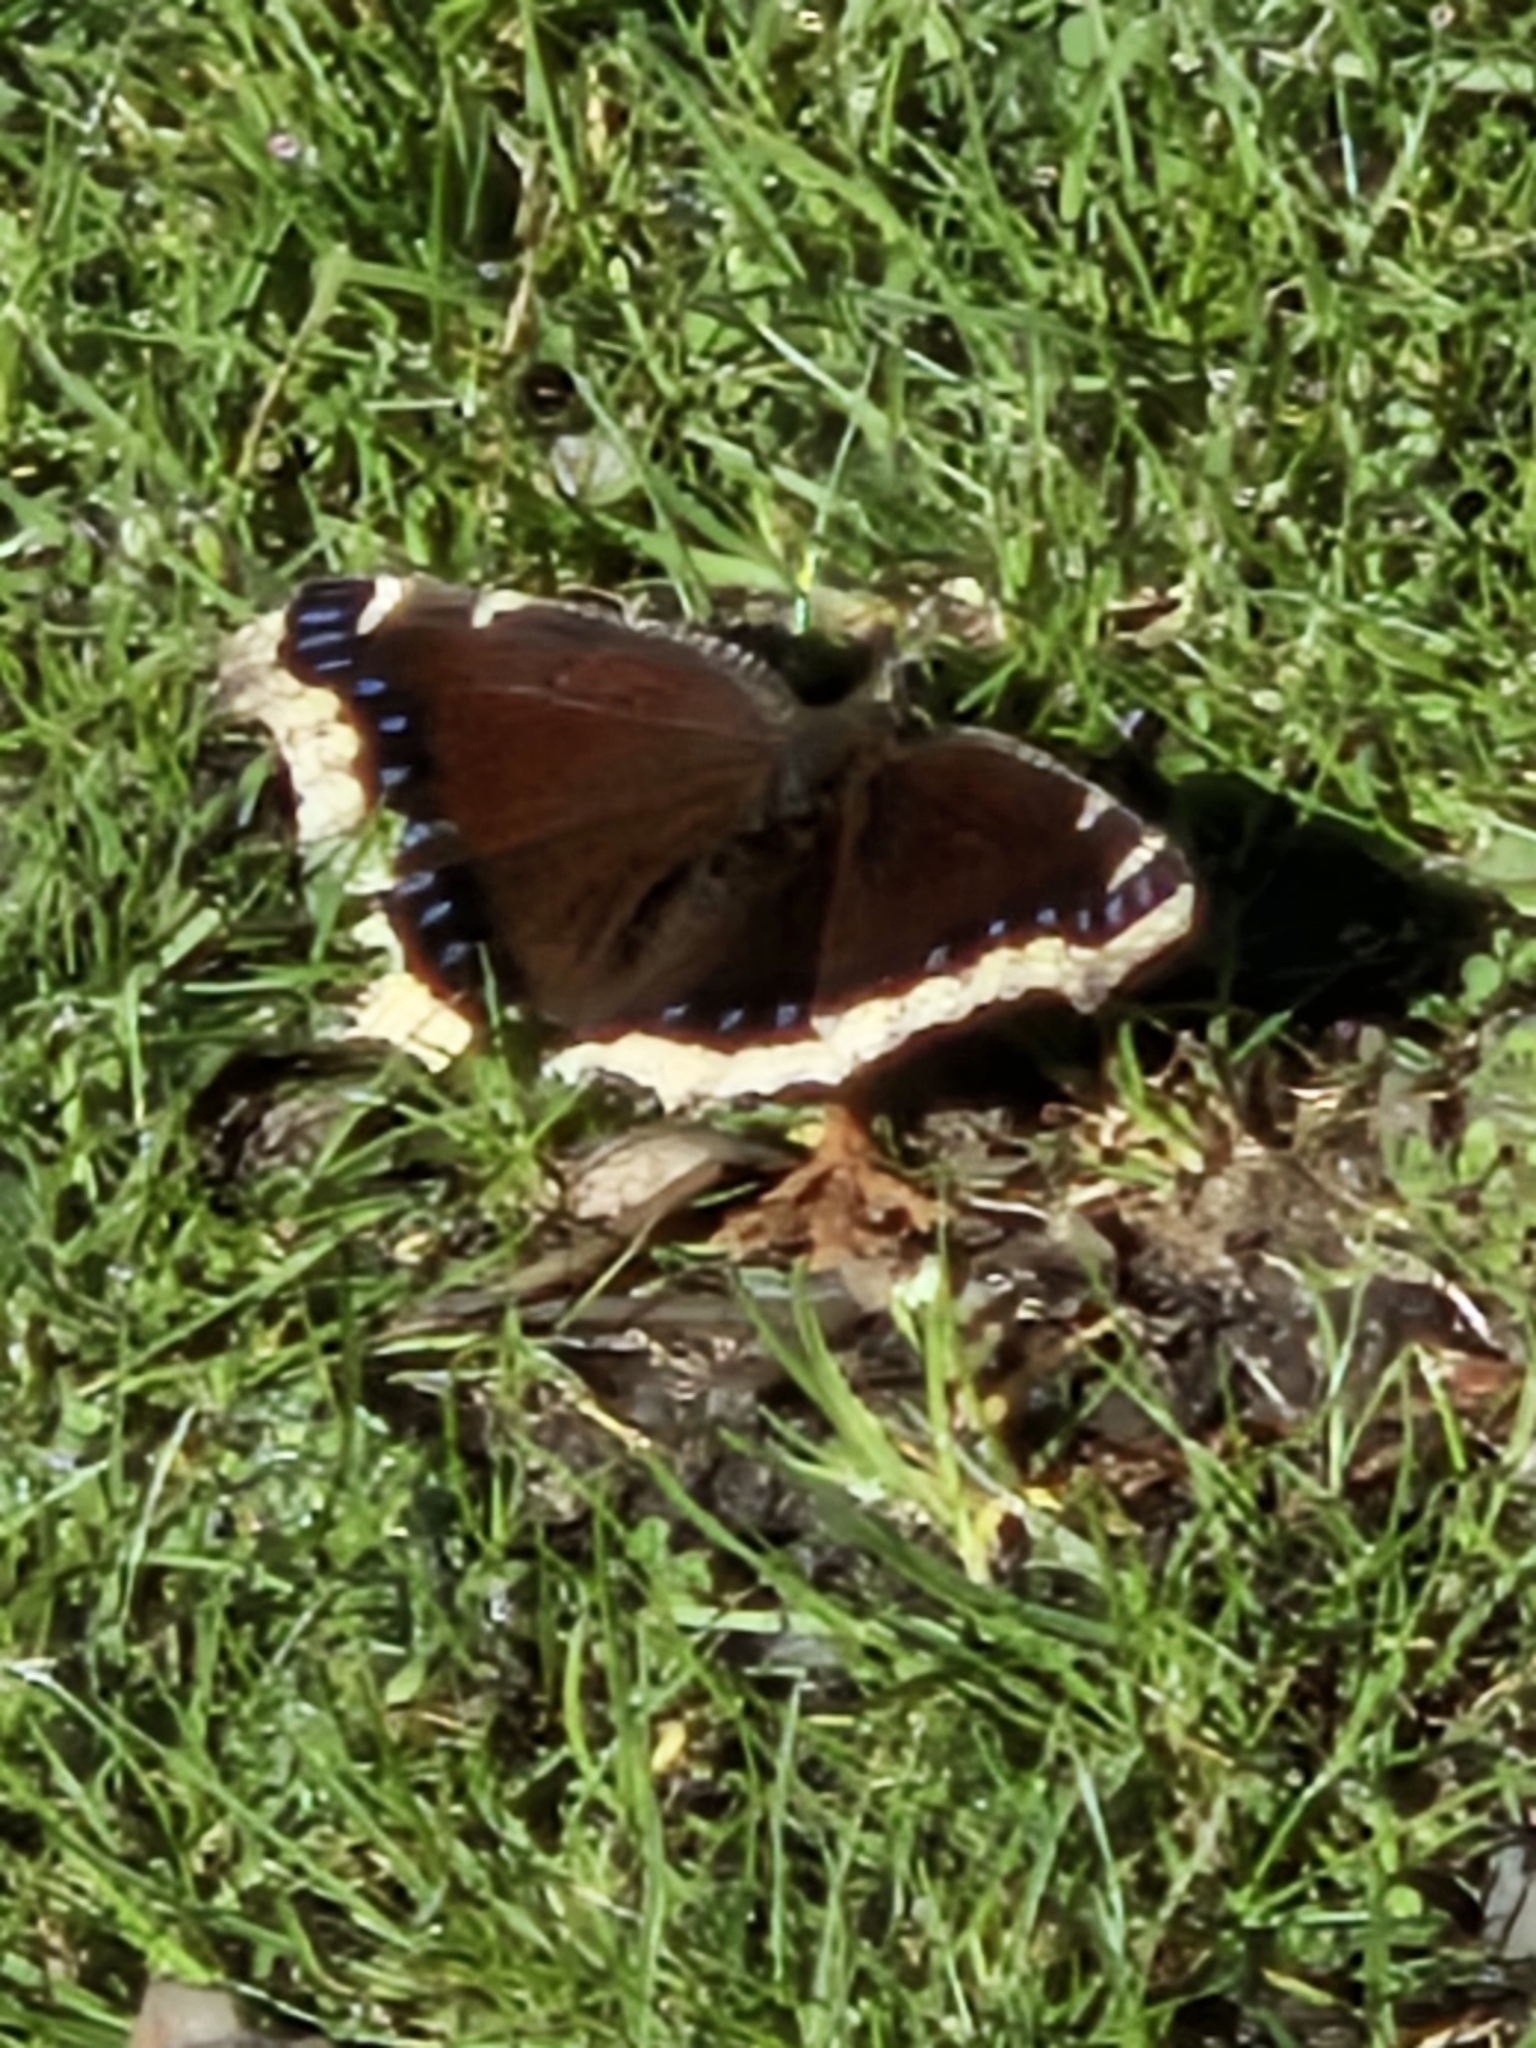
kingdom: Animalia
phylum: Arthropoda
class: Insecta
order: Lepidoptera
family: Nymphalidae
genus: Nymphalis
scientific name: Nymphalis antiopa
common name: Camberwell beauty
